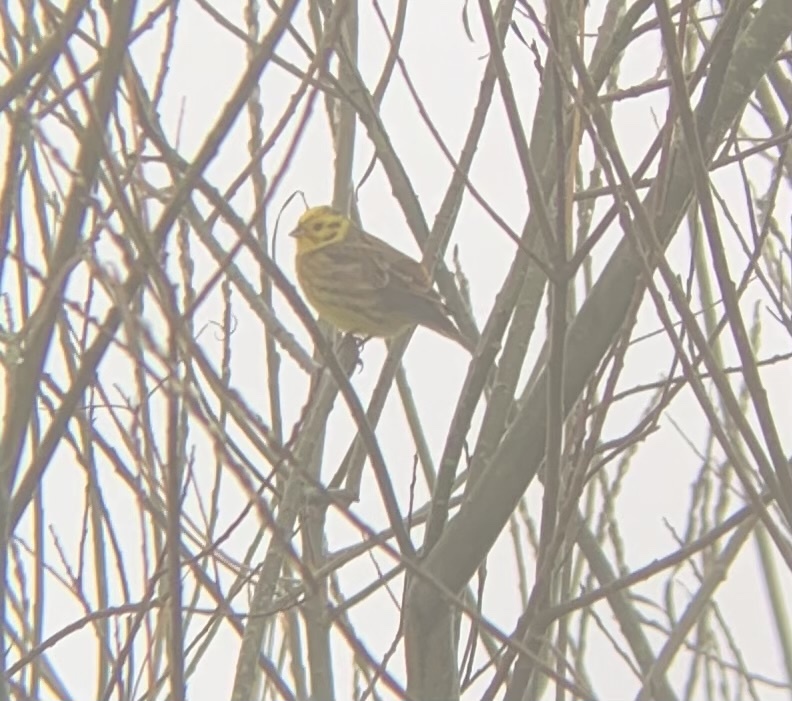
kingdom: Animalia
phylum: Chordata
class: Aves
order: Passeriformes
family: Emberizidae
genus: Emberiza
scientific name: Emberiza citrinella
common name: Yellowhammer
